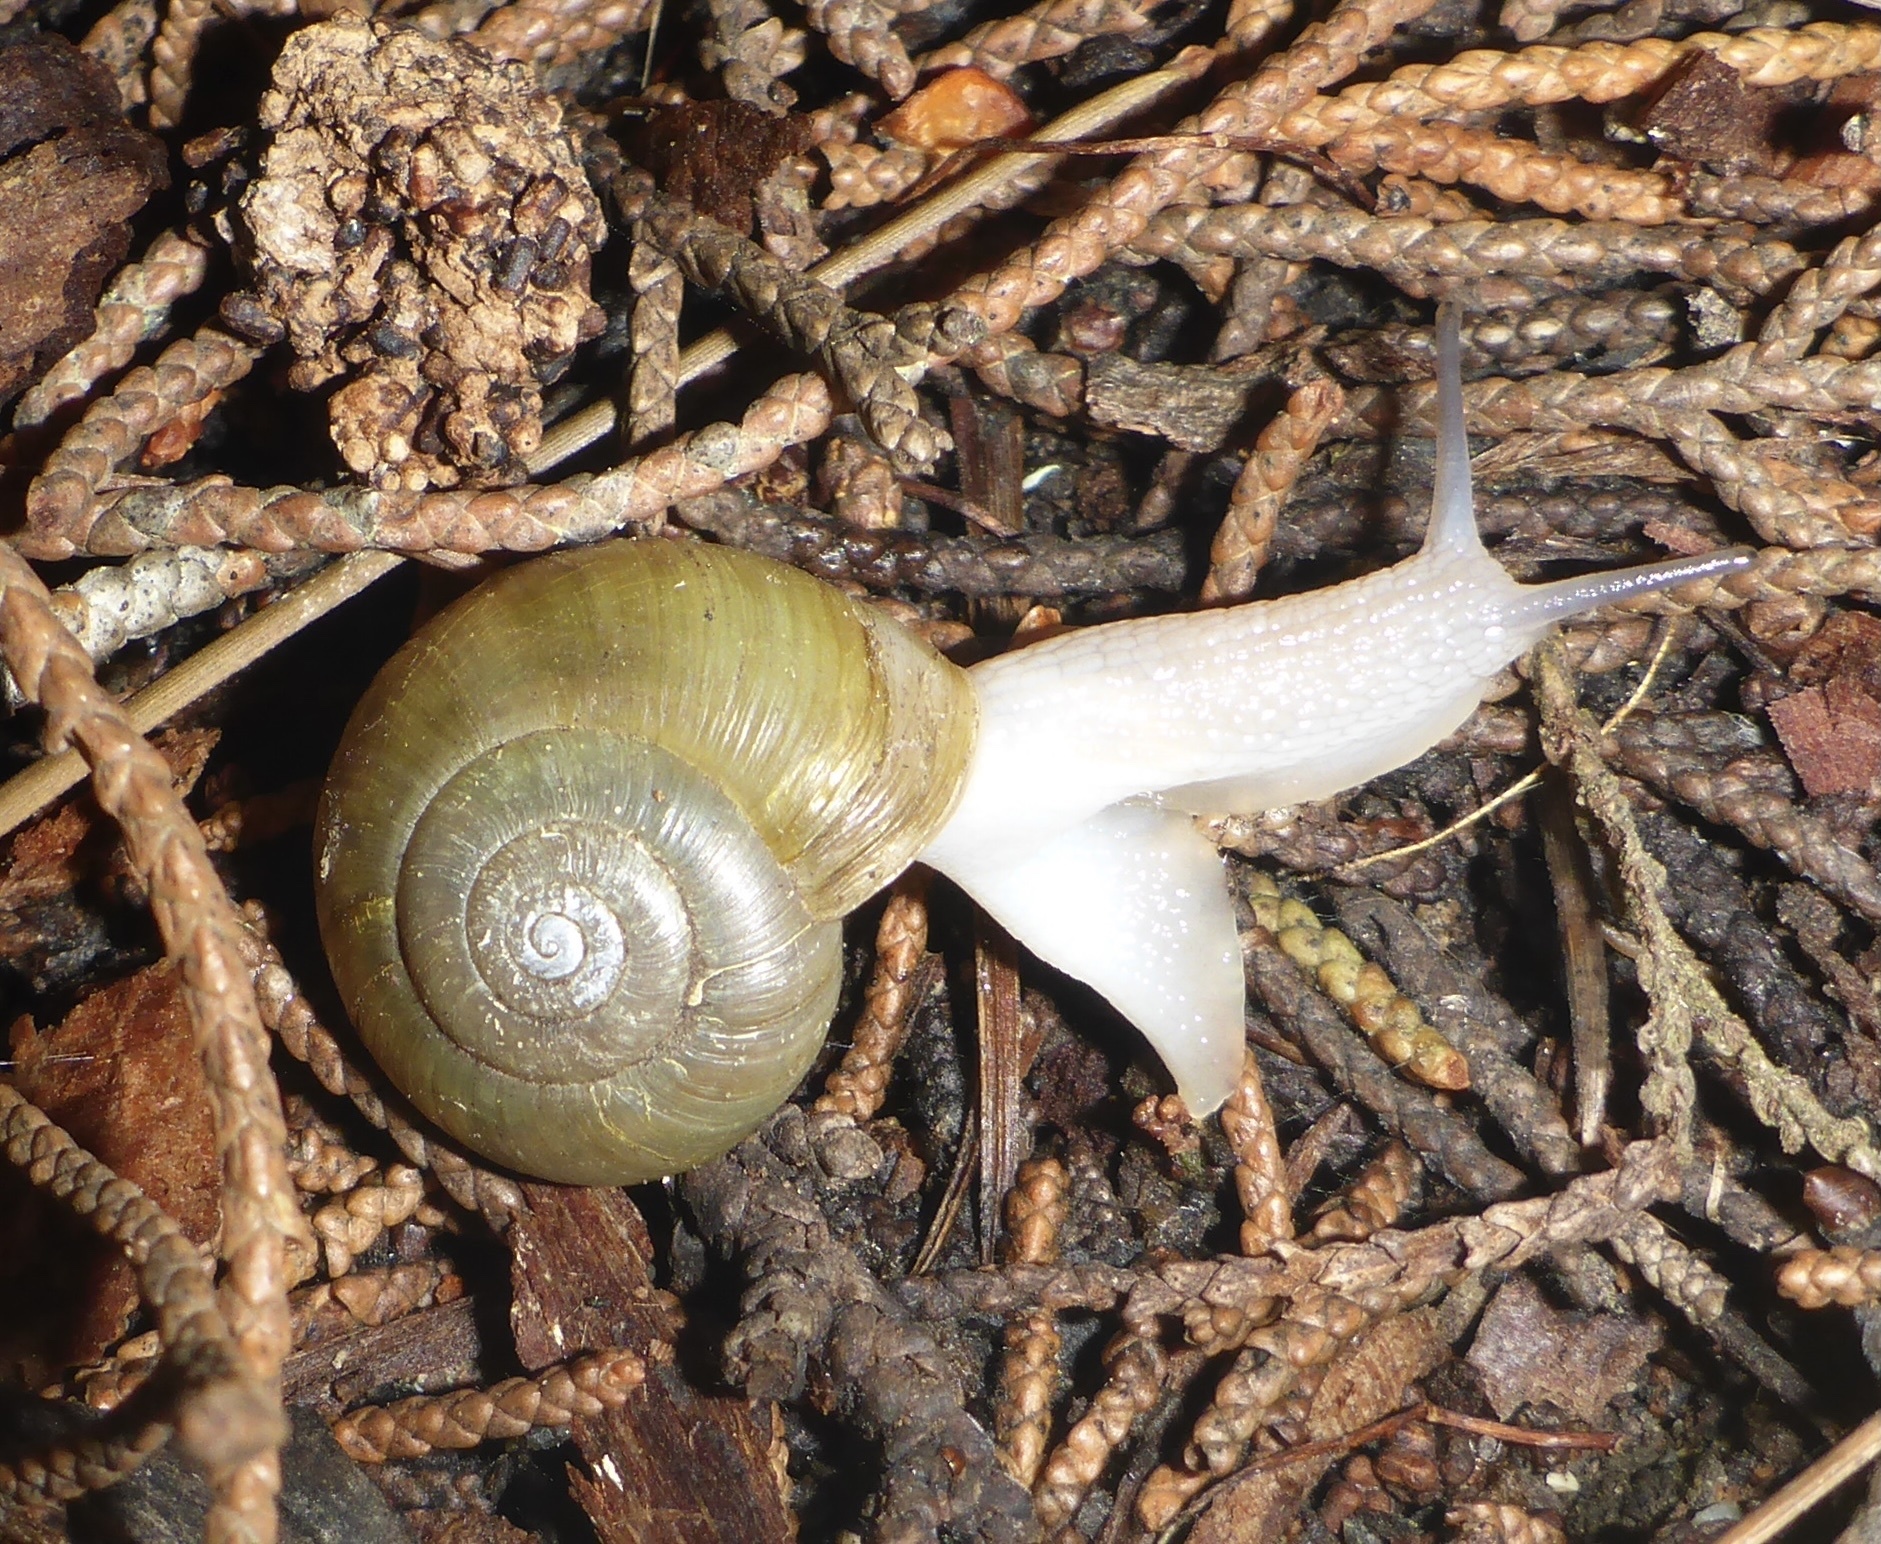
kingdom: Animalia
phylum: Mollusca
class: Gastropoda
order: Stylommatophora
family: Haplotrematidae
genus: Haplotrema
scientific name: Haplotrema minimum
